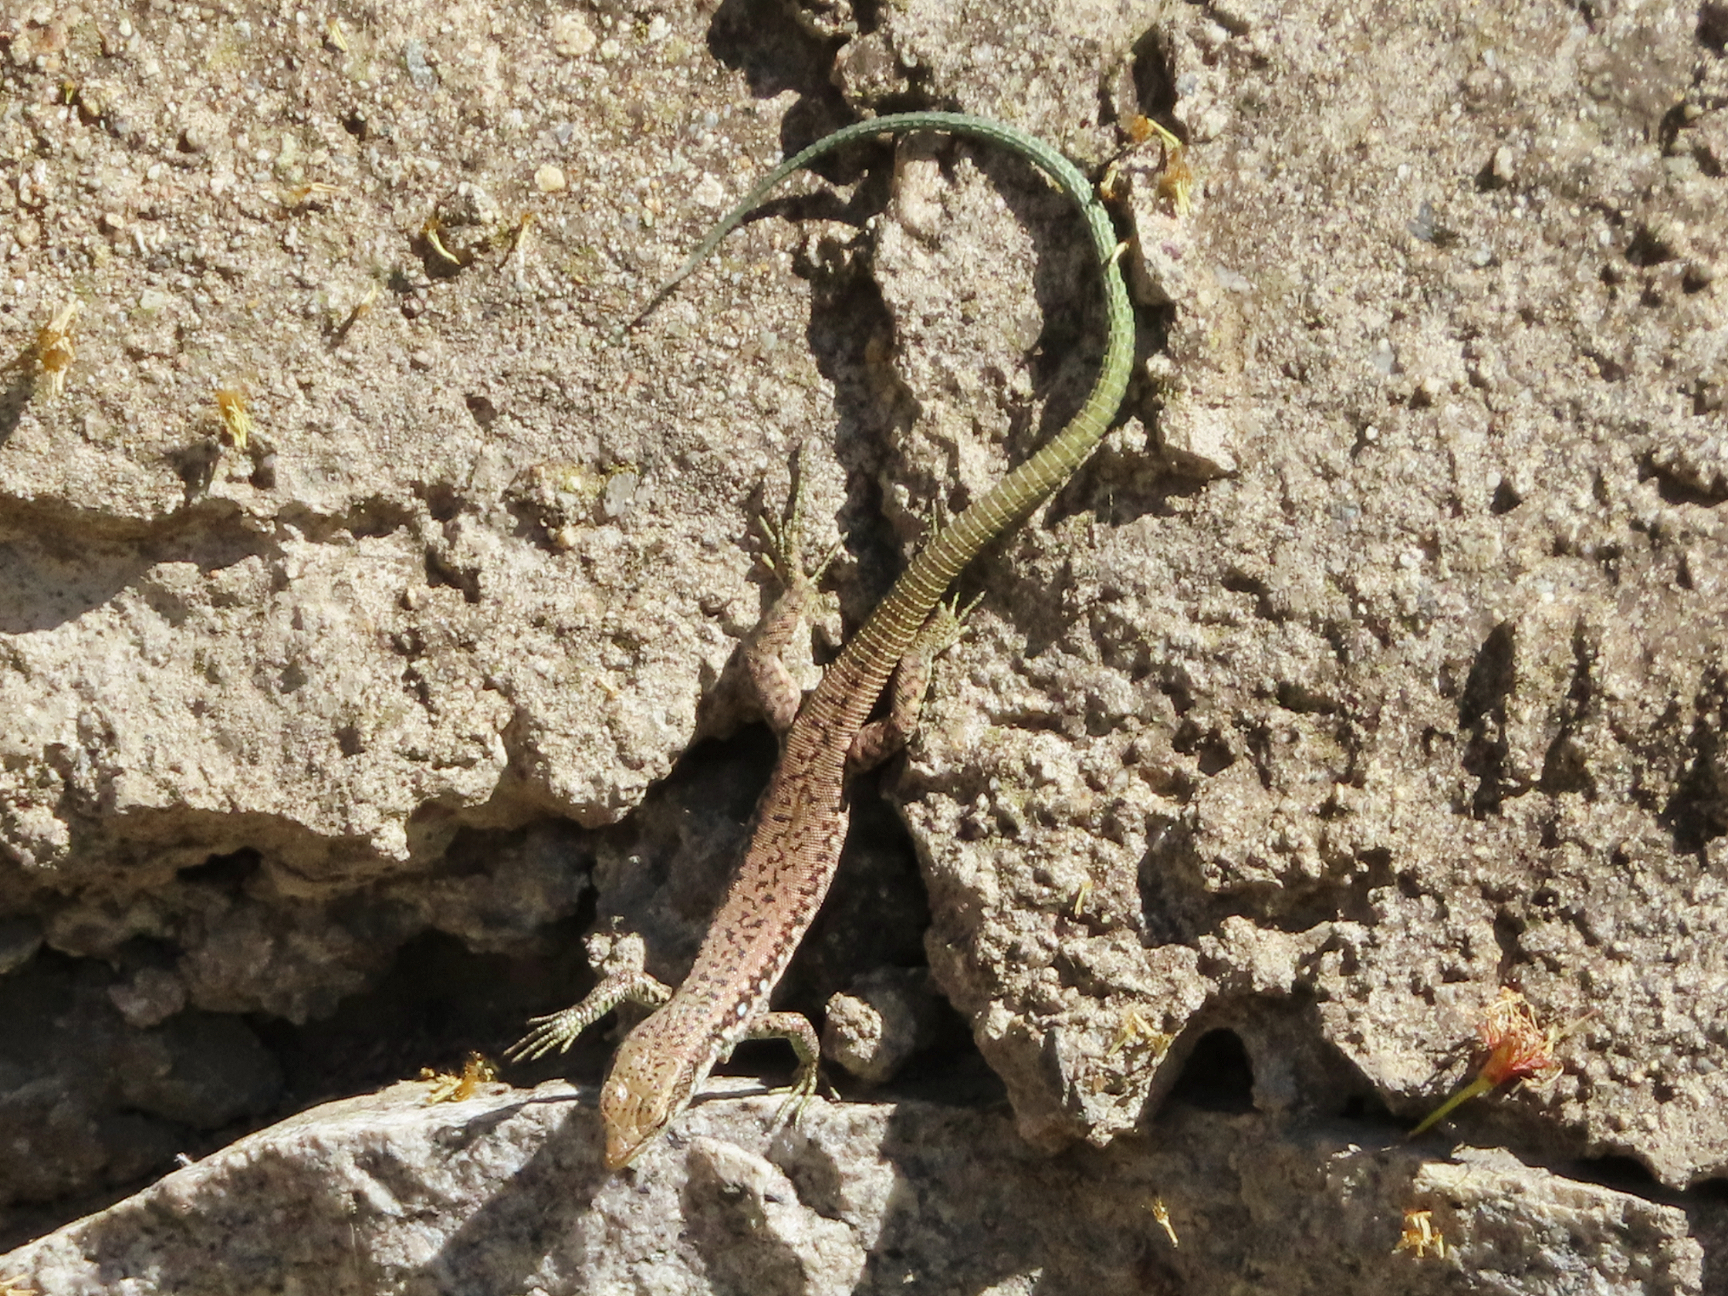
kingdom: Animalia
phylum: Chordata
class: Squamata
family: Lacertidae
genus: Darevskia
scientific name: Darevskia raddei
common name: Radde's lizard
